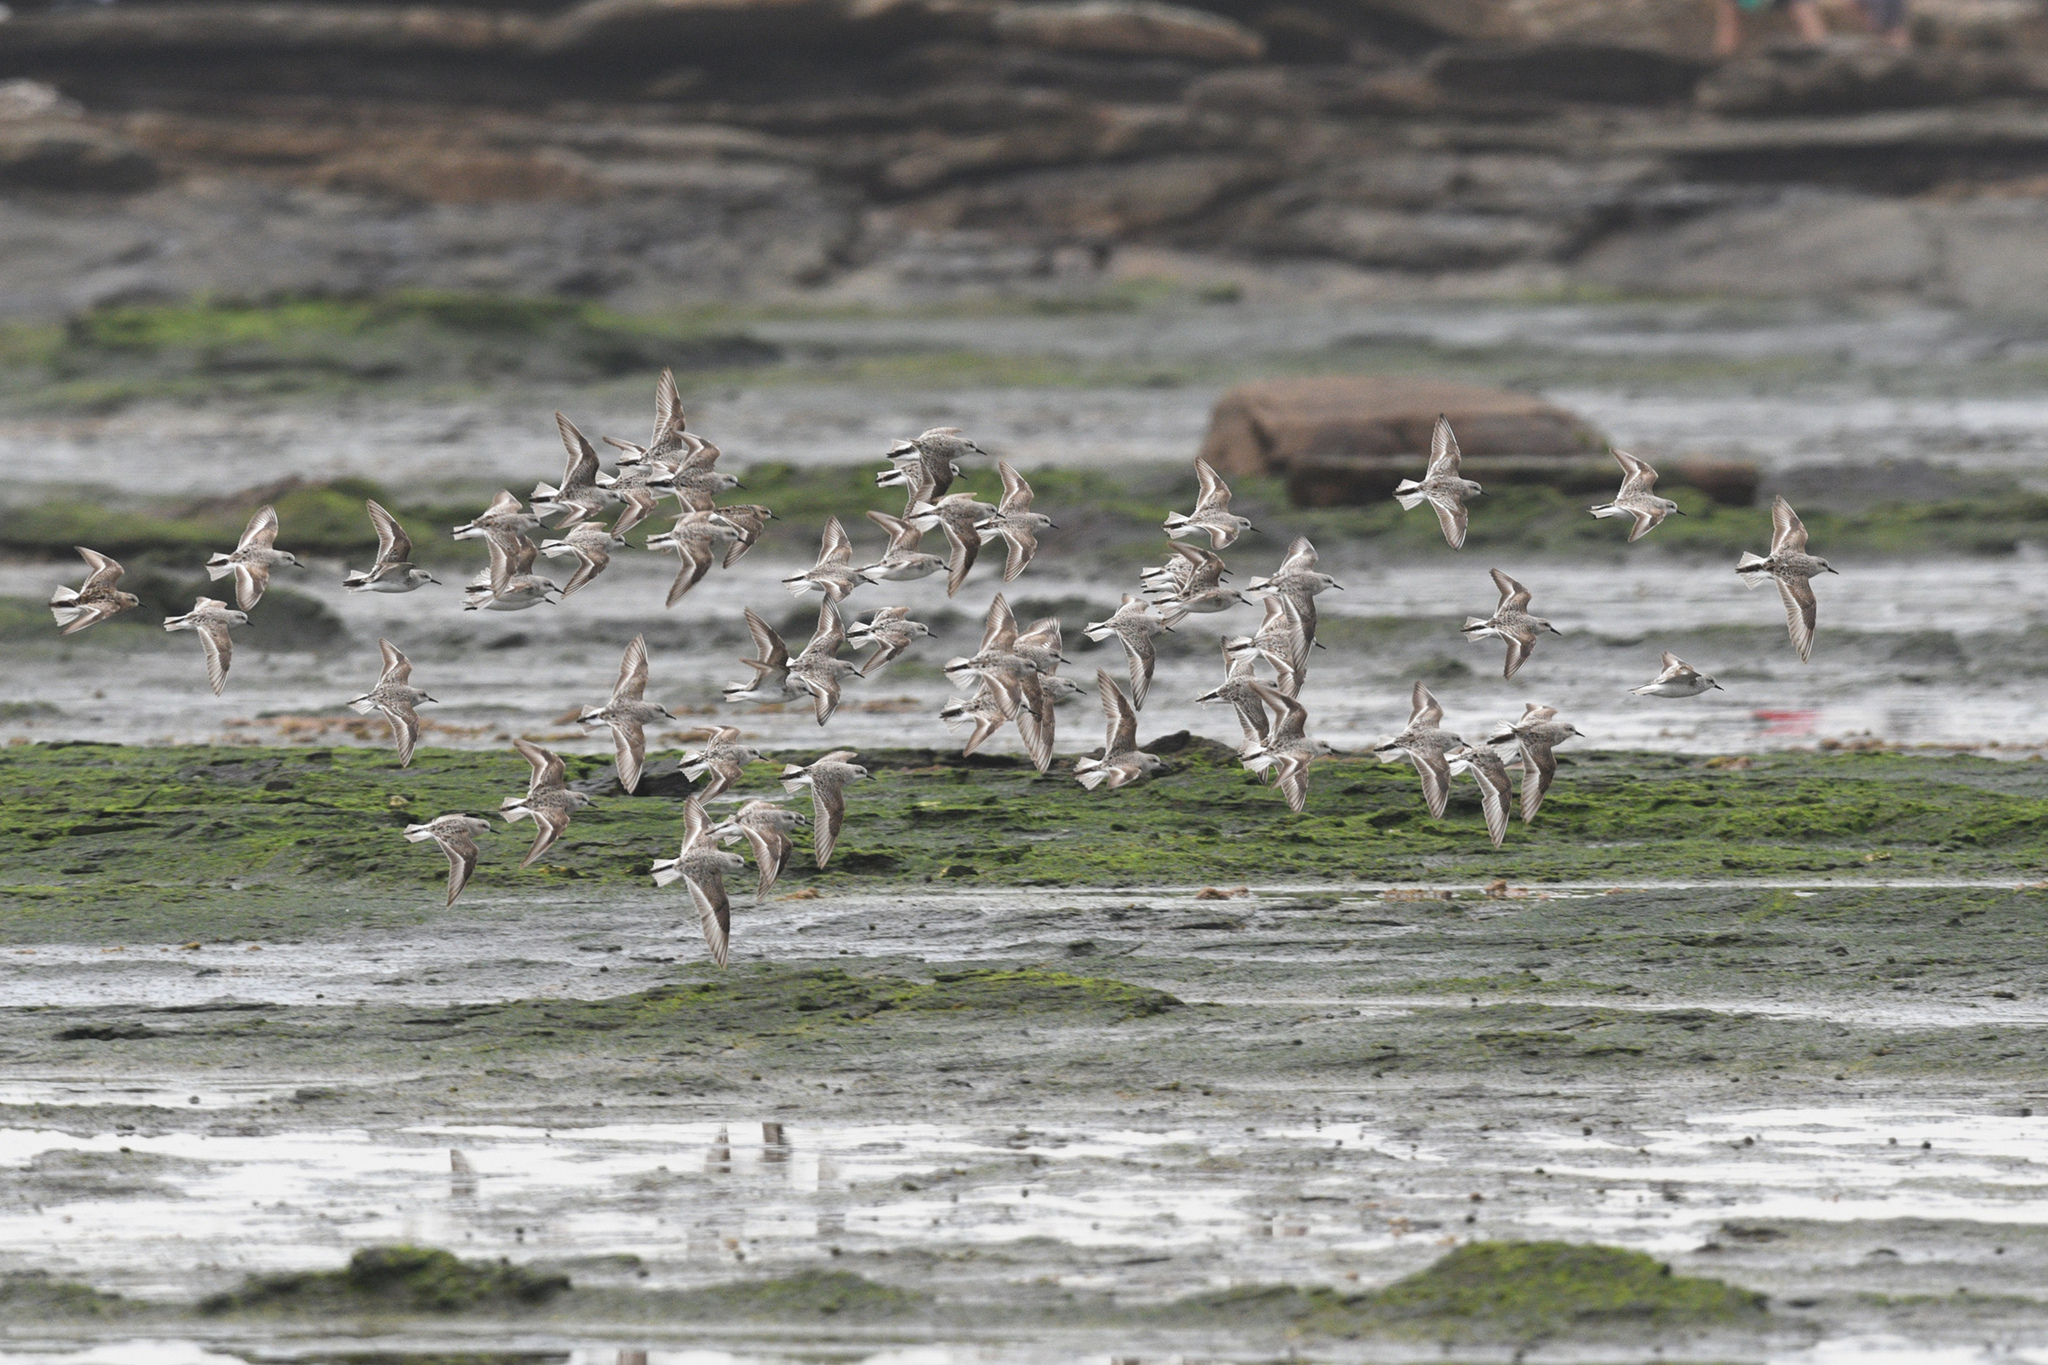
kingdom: Animalia
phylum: Chordata
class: Aves
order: Charadriiformes
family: Scolopacidae
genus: Calidris
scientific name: Calidris ruficollis
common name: Red-necked stint
